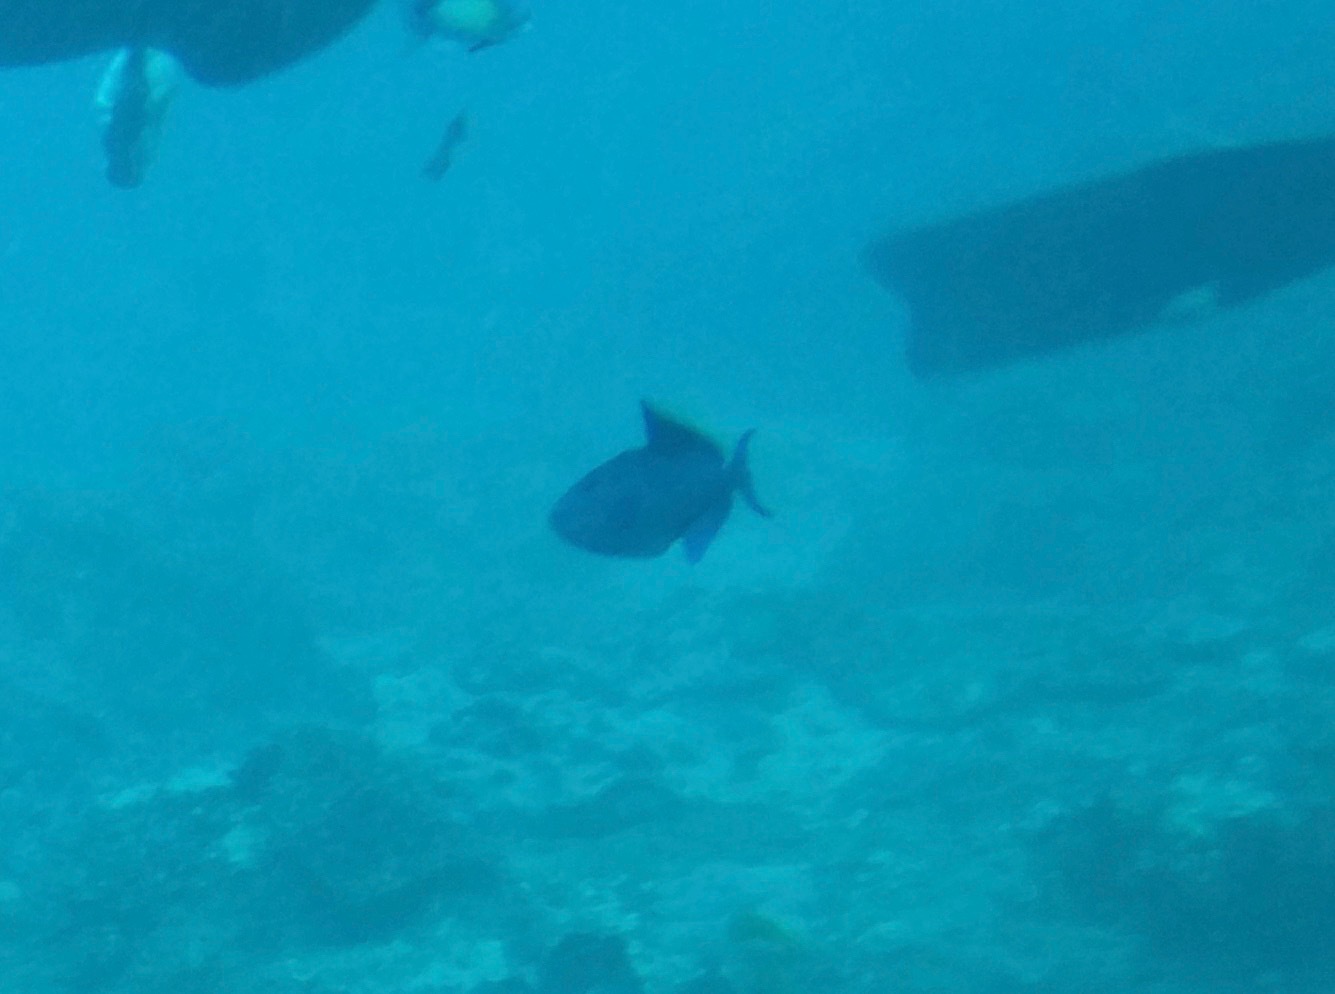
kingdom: Animalia
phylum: Chordata
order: Tetraodontiformes
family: Balistidae
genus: Odonus
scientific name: Odonus niger
